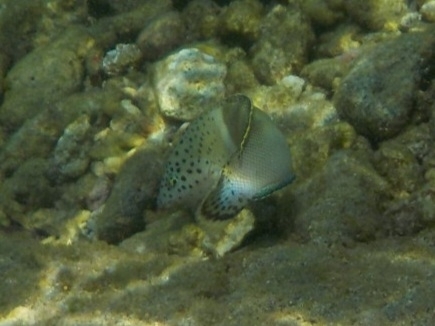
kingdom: Animalia
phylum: Chordata
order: Perciformes
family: Labridae
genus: Coris
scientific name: Coris aygula
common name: Clown coris
